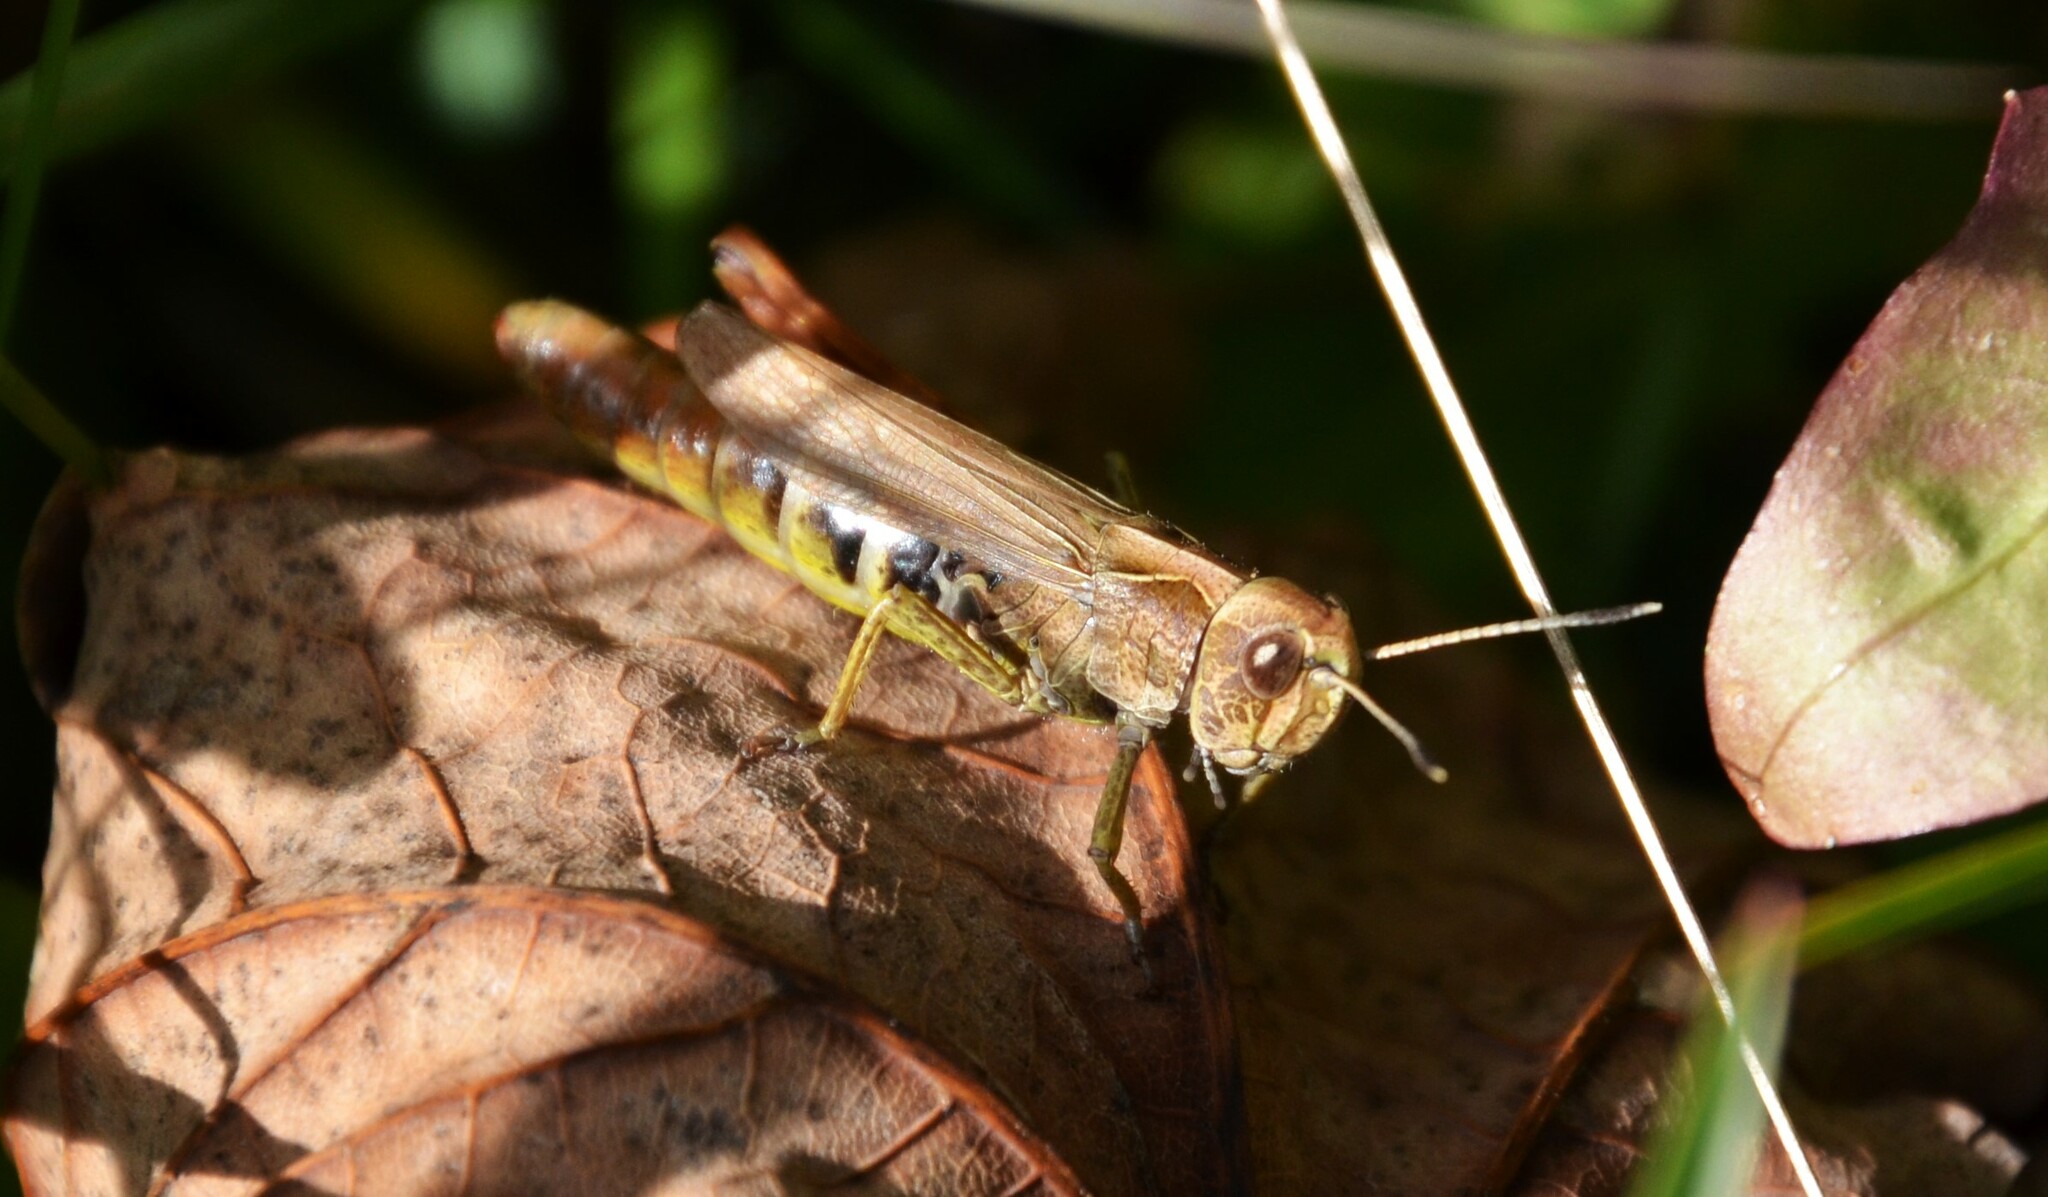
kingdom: Animalia
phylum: Arthropoda
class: Insecta
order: Orthoptera
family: Acrididae
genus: Gomphocerippus
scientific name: Gomphocerippus rufus
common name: Rufous grasshopper
